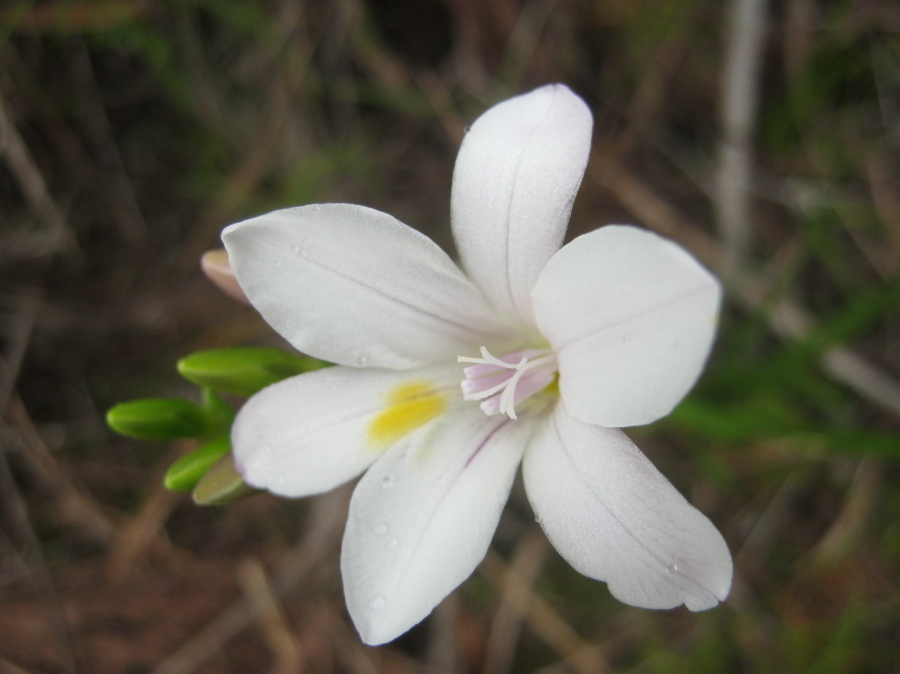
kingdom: Plantae
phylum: Tracheophyta
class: Liliopsida
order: Asparagales
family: Iridaceae
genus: Freesia
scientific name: Freesia leichtlinii
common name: Freesia
